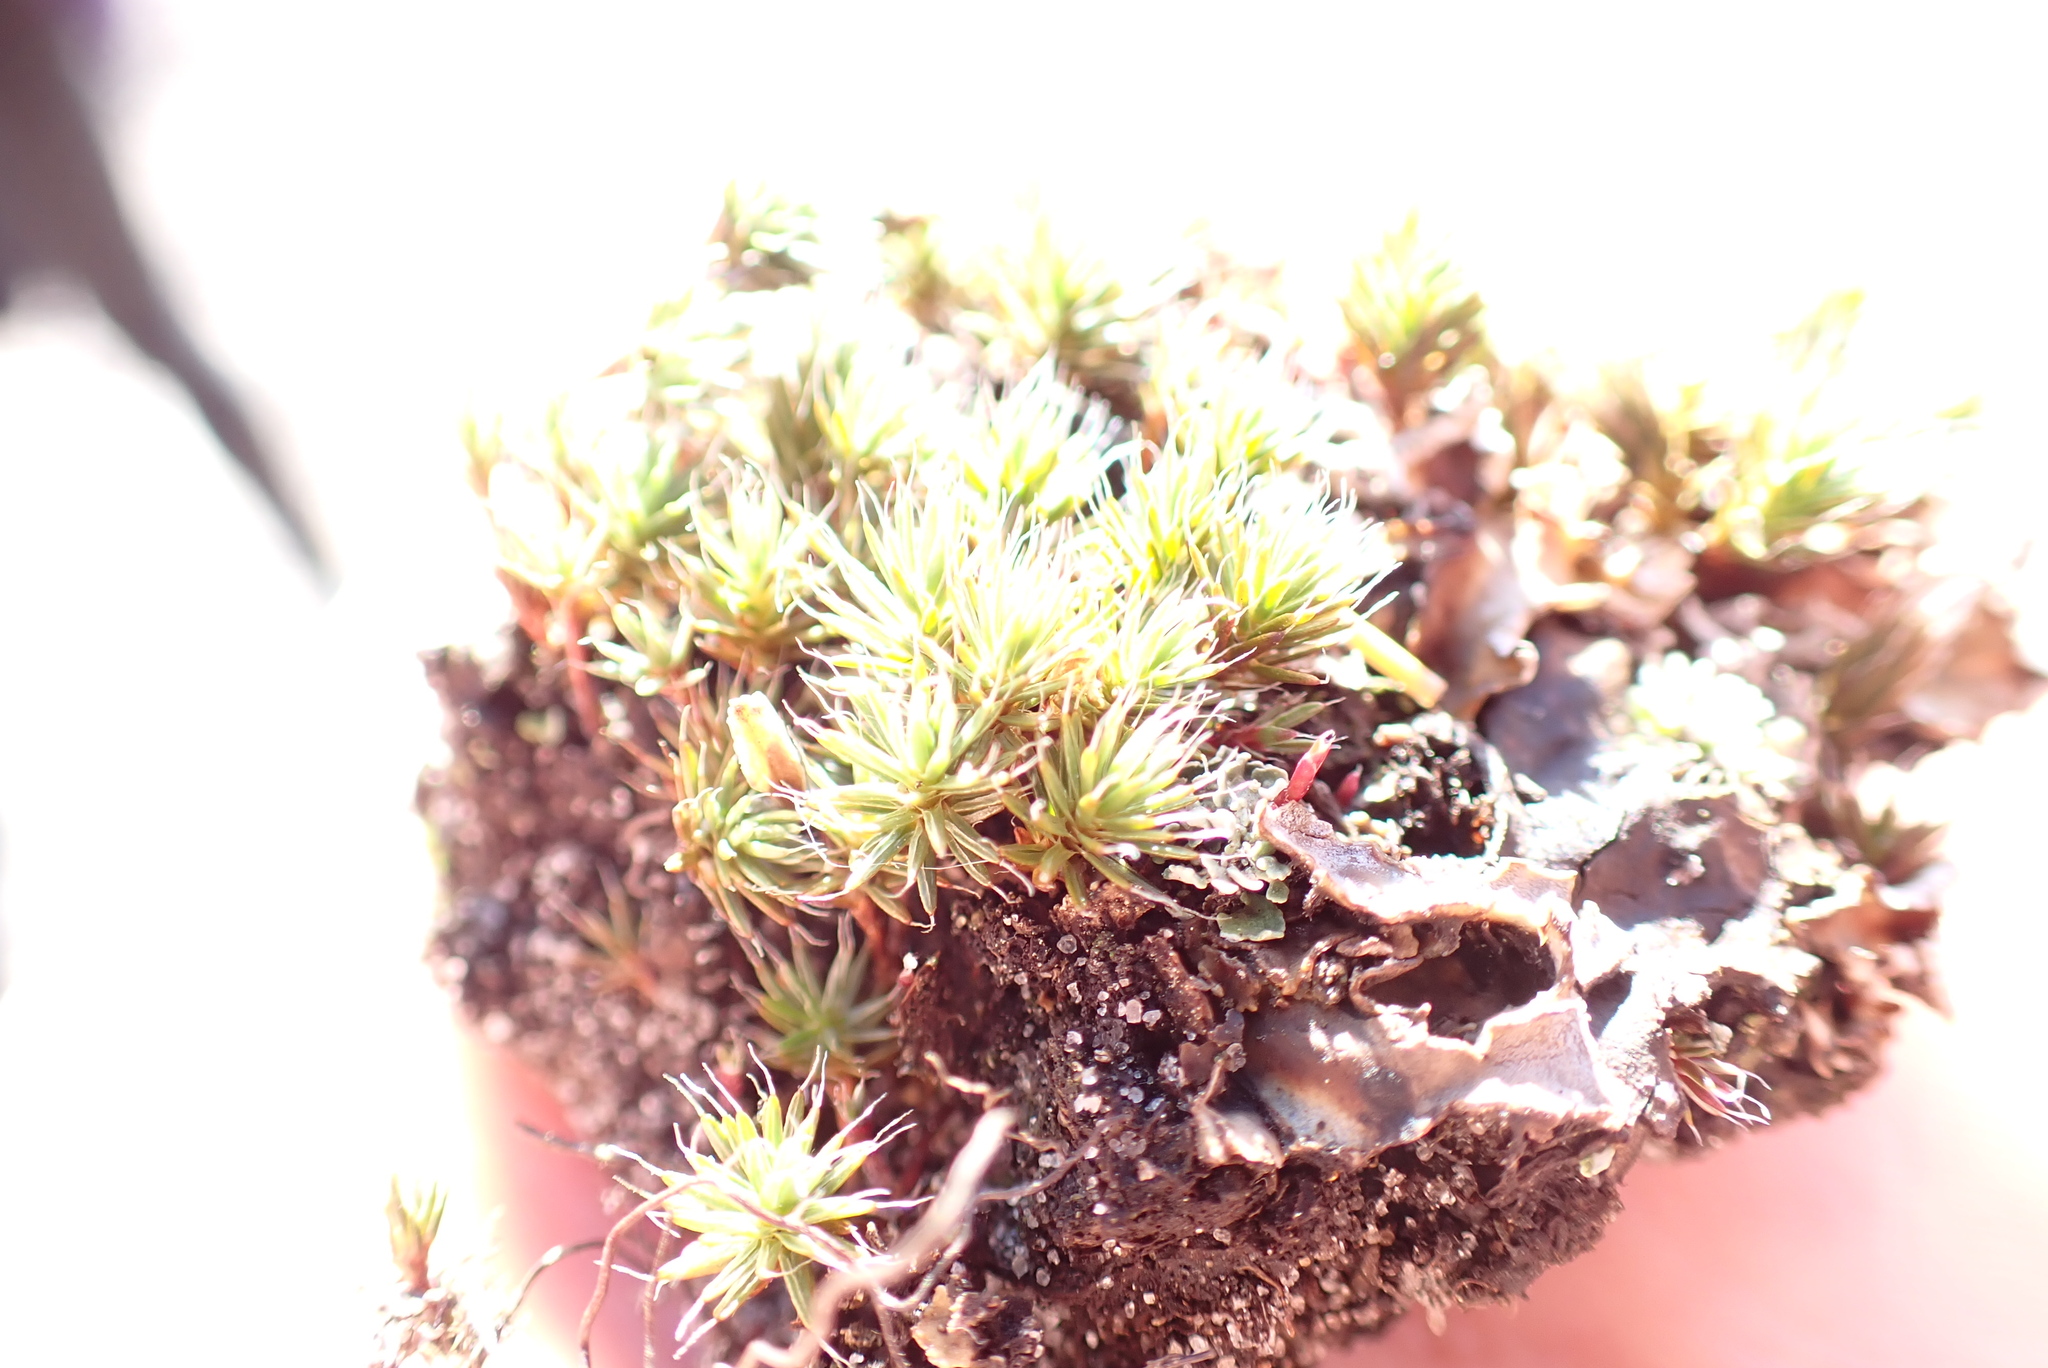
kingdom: Plantae
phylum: Bryophyta
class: Polytrichopsida
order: Polytrichales
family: Polytrichaceae
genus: Polytrichum
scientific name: Polytrichum piliferum
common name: Bristly haircap
